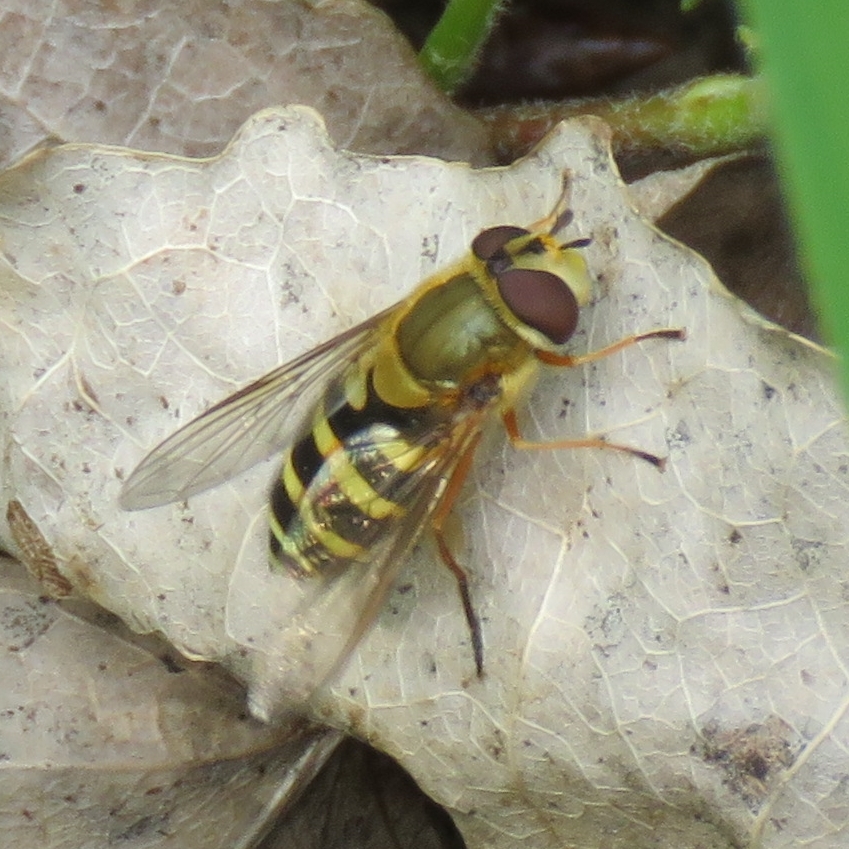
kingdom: Animalia
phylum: Arthropoda
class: Insecta
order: Diptera
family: Syrphidae
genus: Syrphus
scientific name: Syrphus ribesii
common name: Common flower fly
